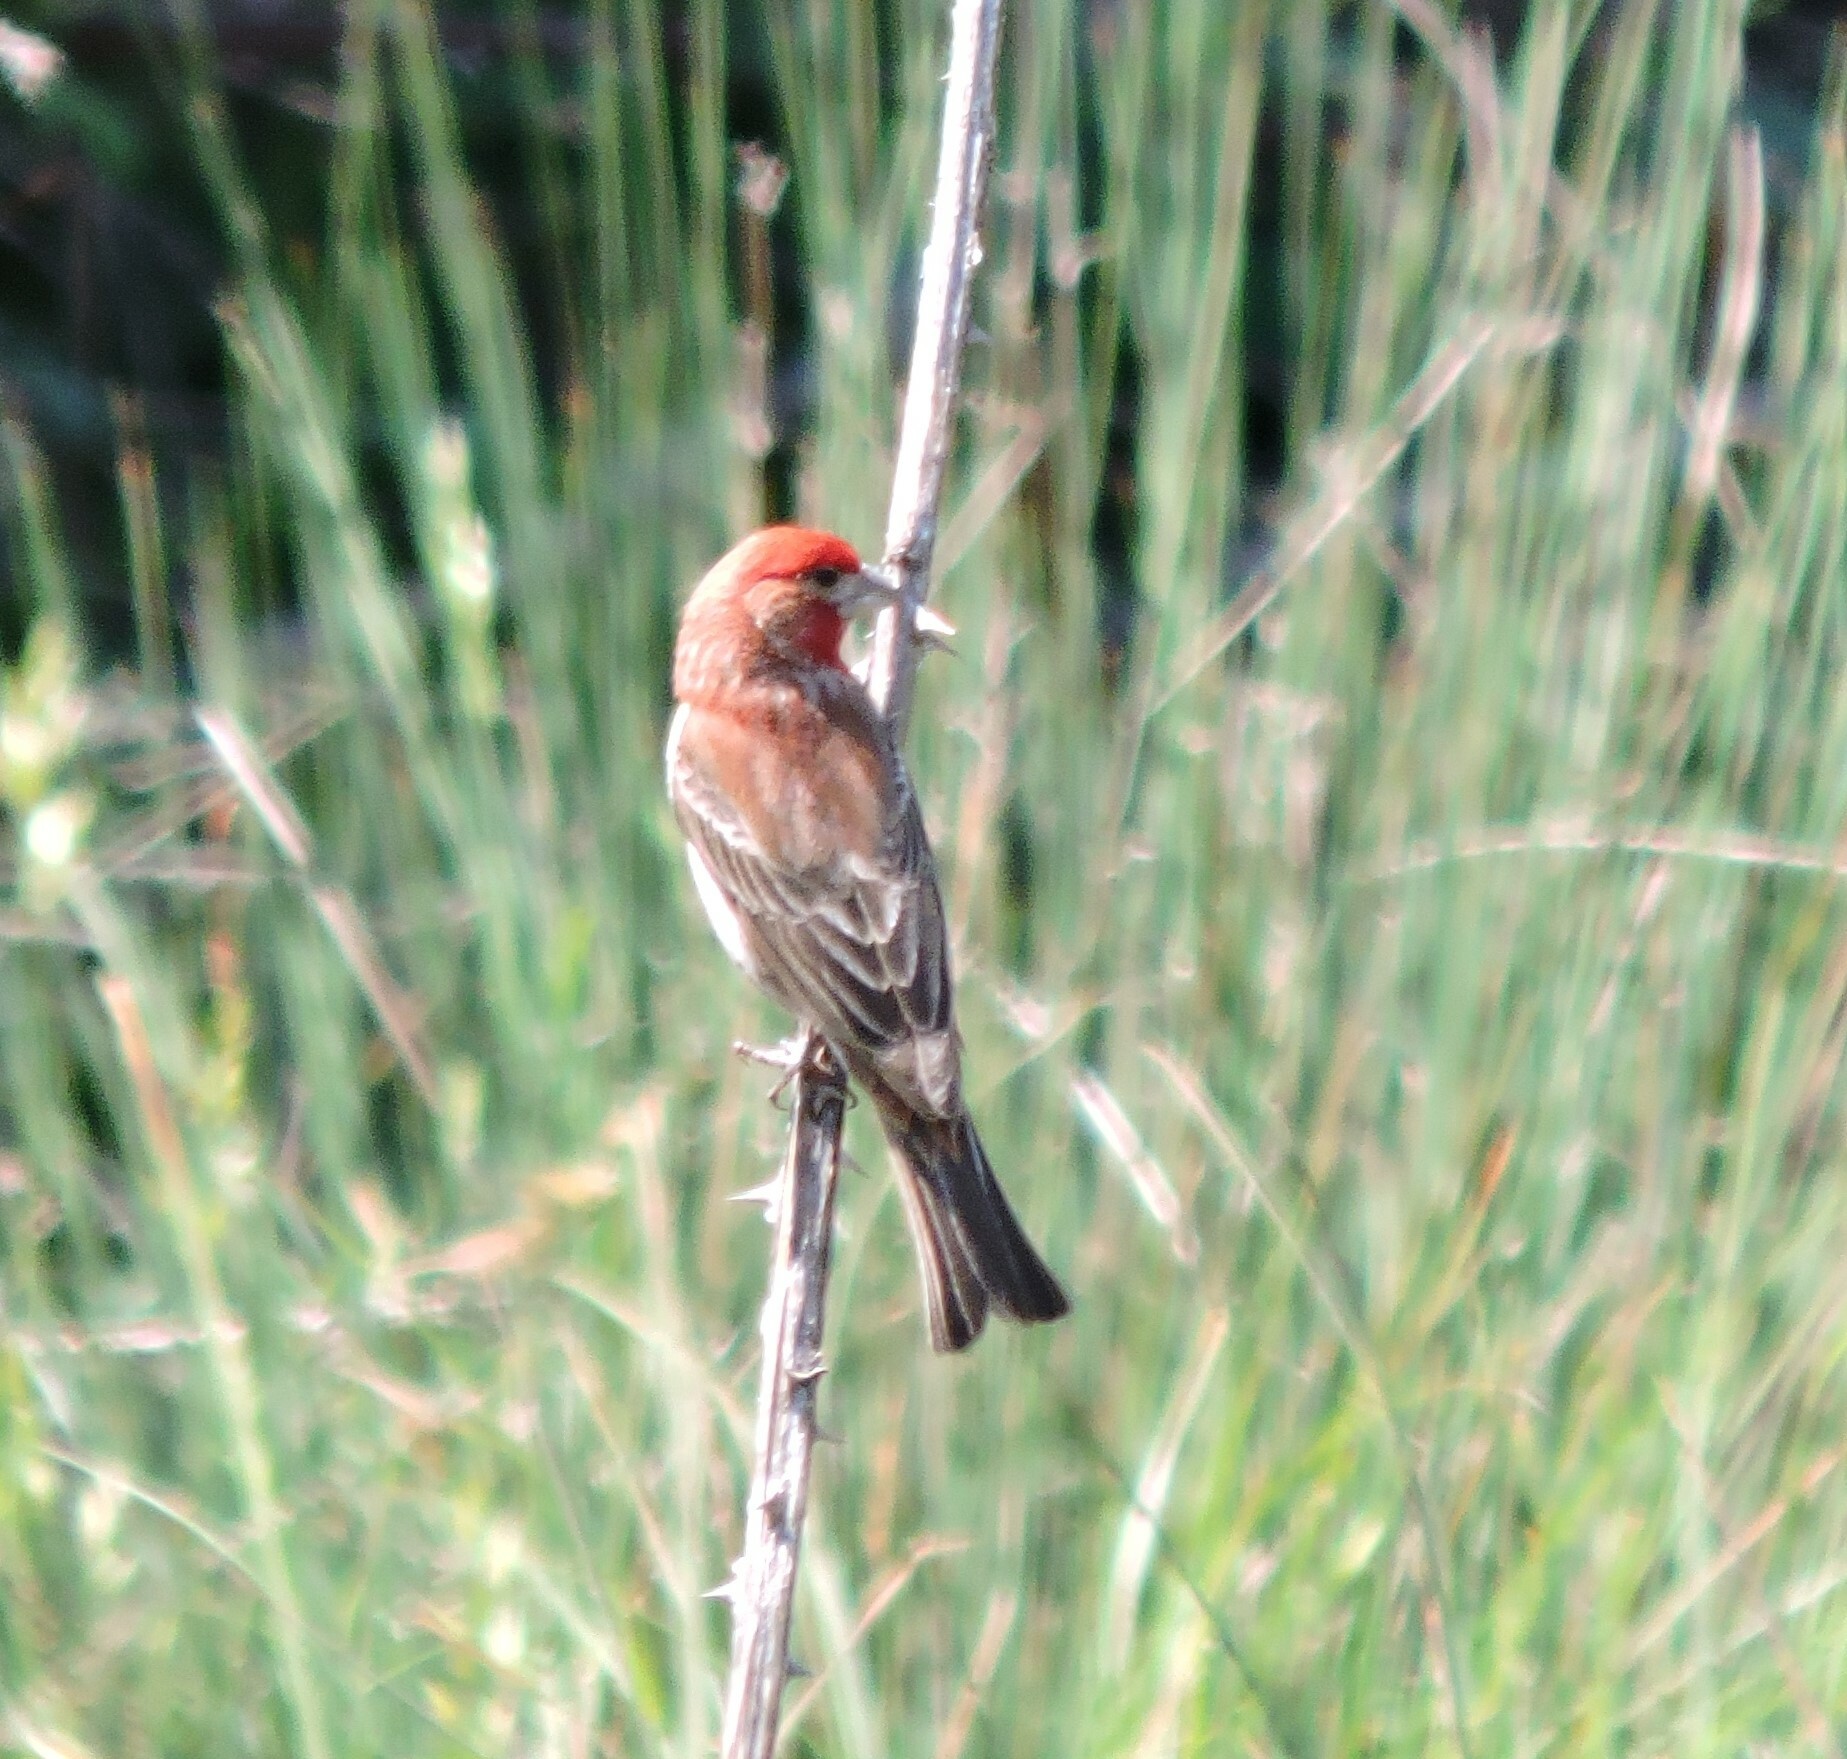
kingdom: Animalia
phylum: Chordata
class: Aves
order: Passeriformes
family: Fringillidae
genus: Haemorhous
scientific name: Haemorhous mexicanus
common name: House finch
